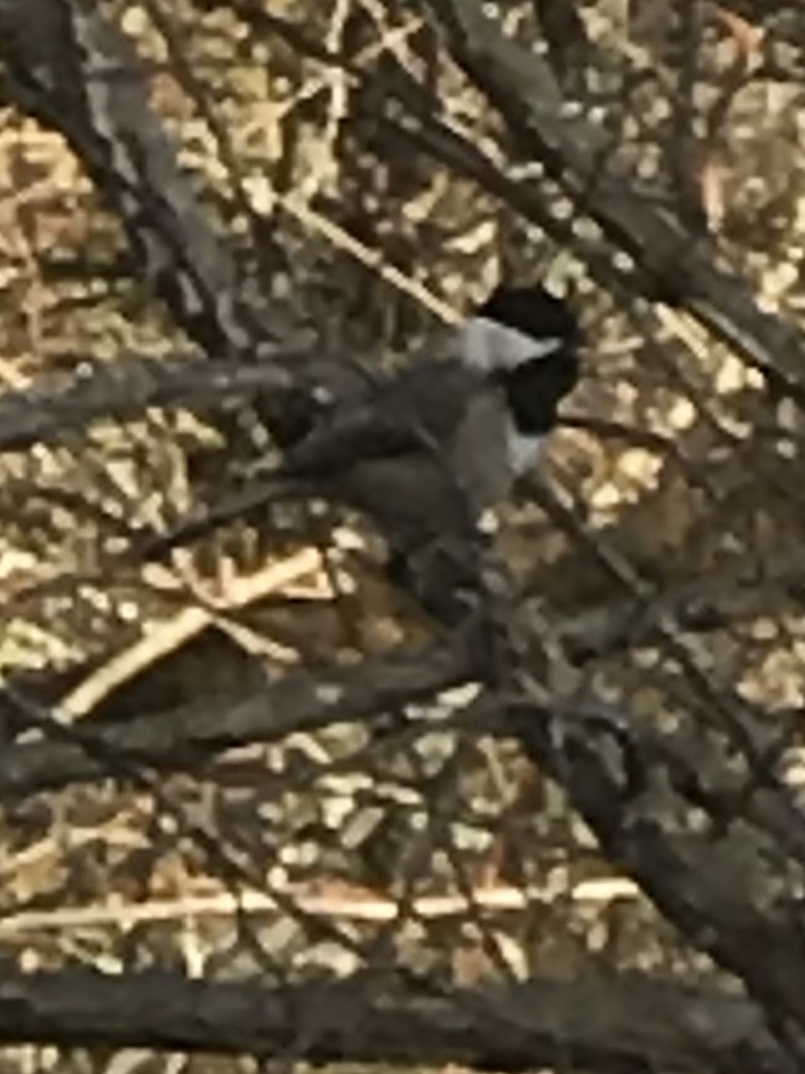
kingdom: Animalia
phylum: Chordata
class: Aves
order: Passeriformes
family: Paridae
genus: Poecile
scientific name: Poecile carolinensis
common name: Carolina chickadee
